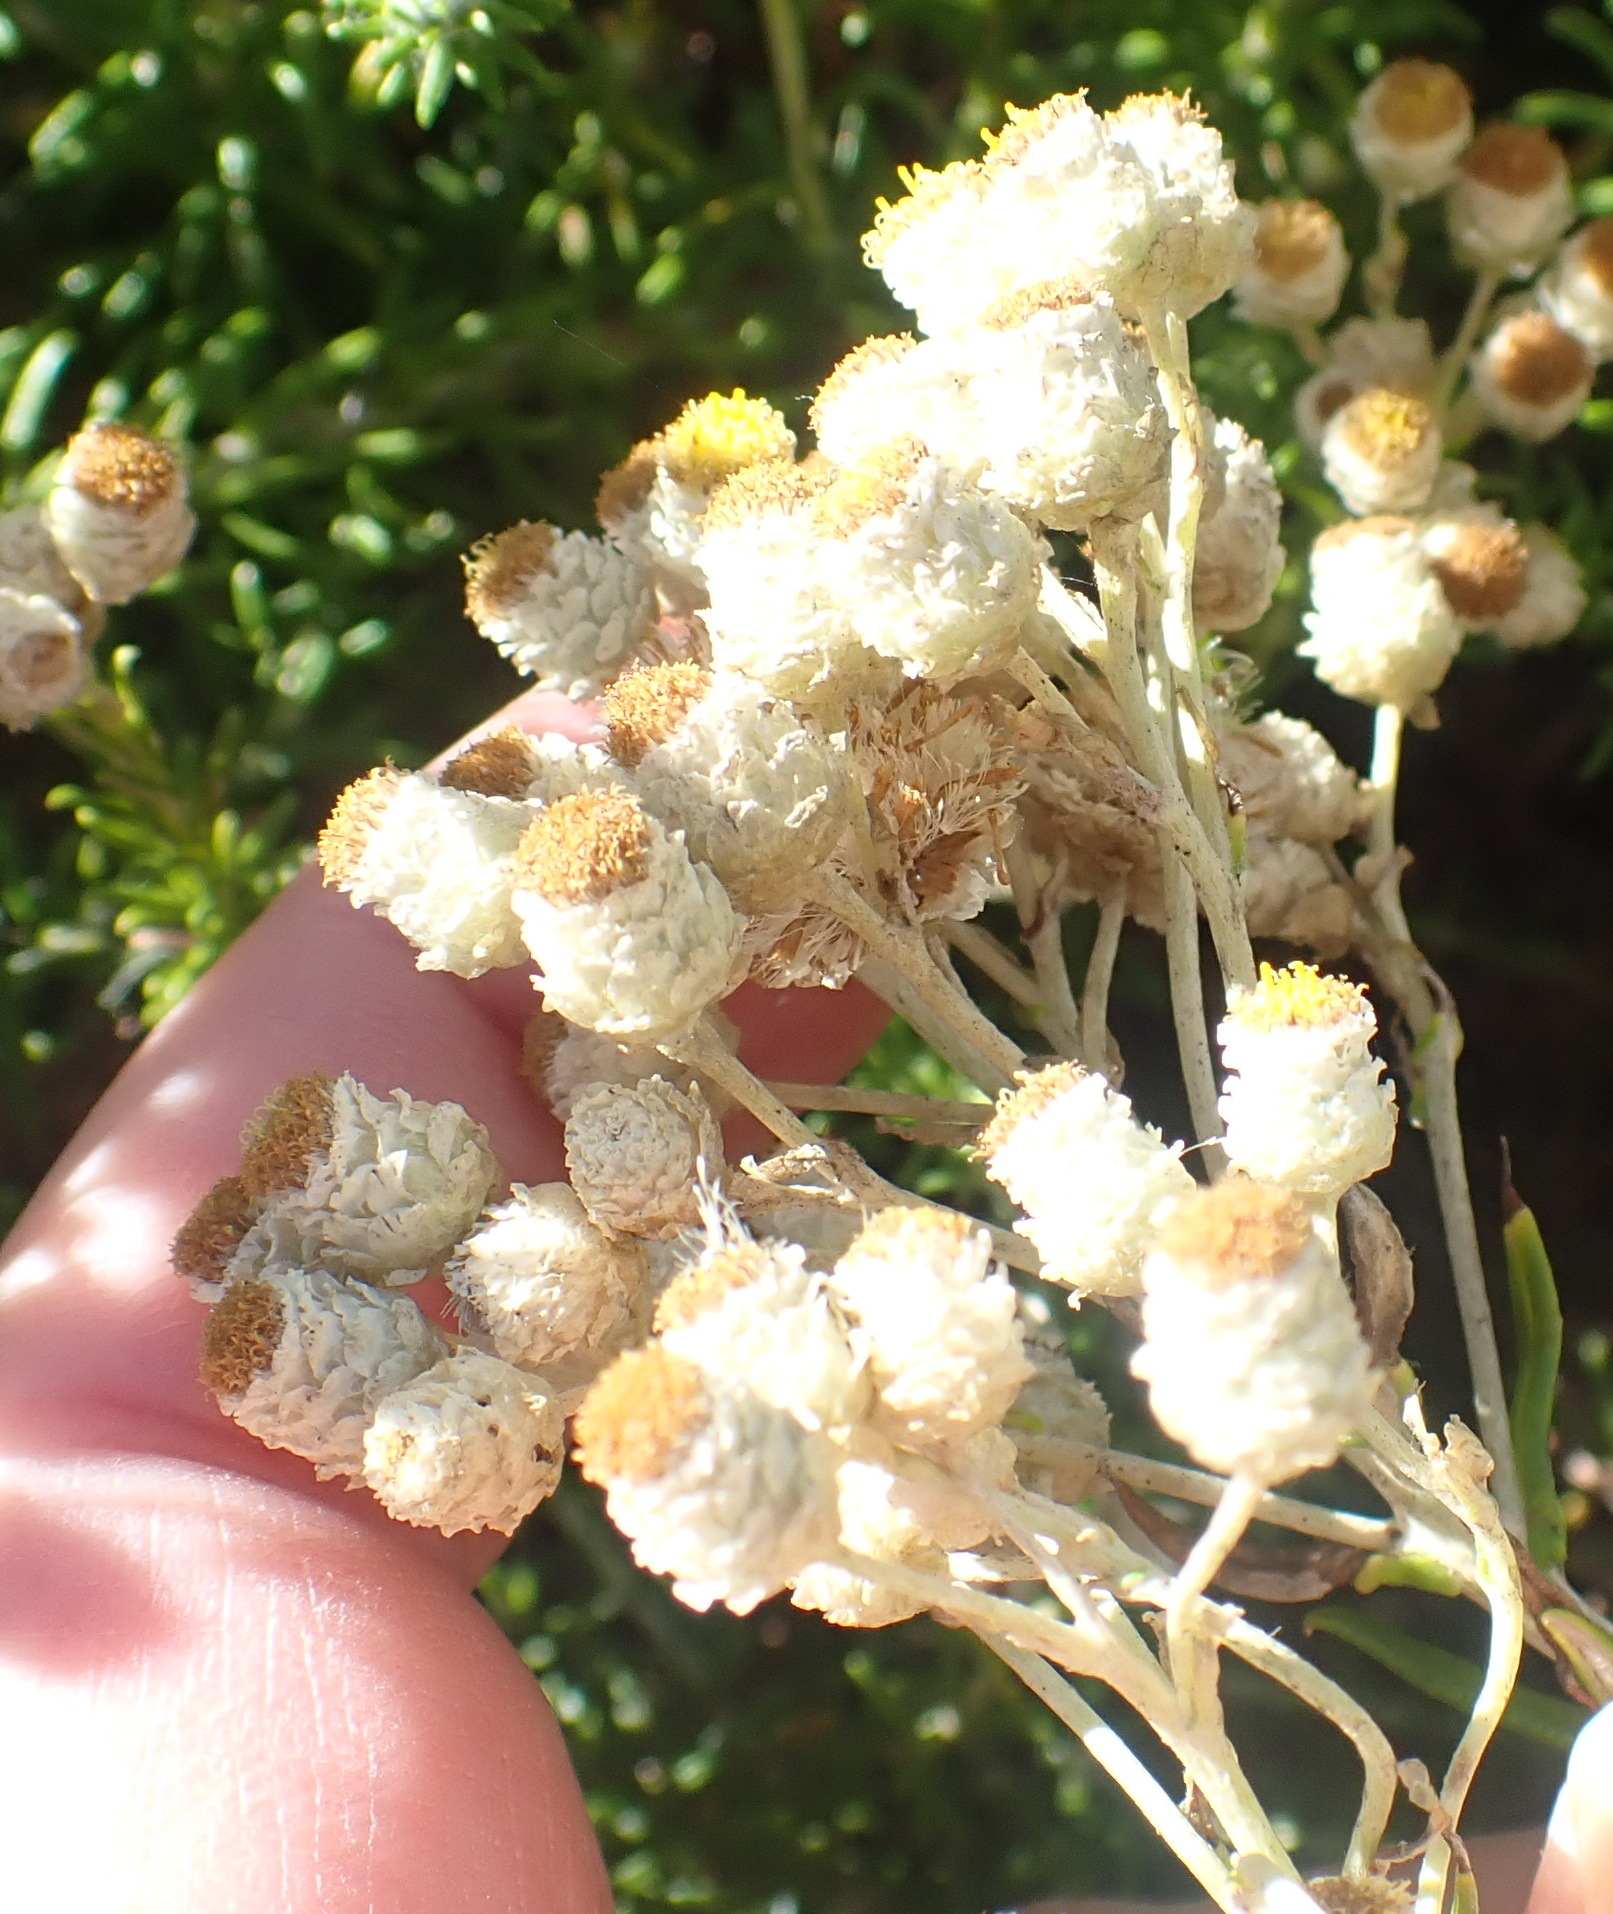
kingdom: Plantae
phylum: Tracheophyta
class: Magnoliopsida
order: Asterales
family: Asteraceae
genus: Helichrysum
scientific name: Helichrysum teretifolium
